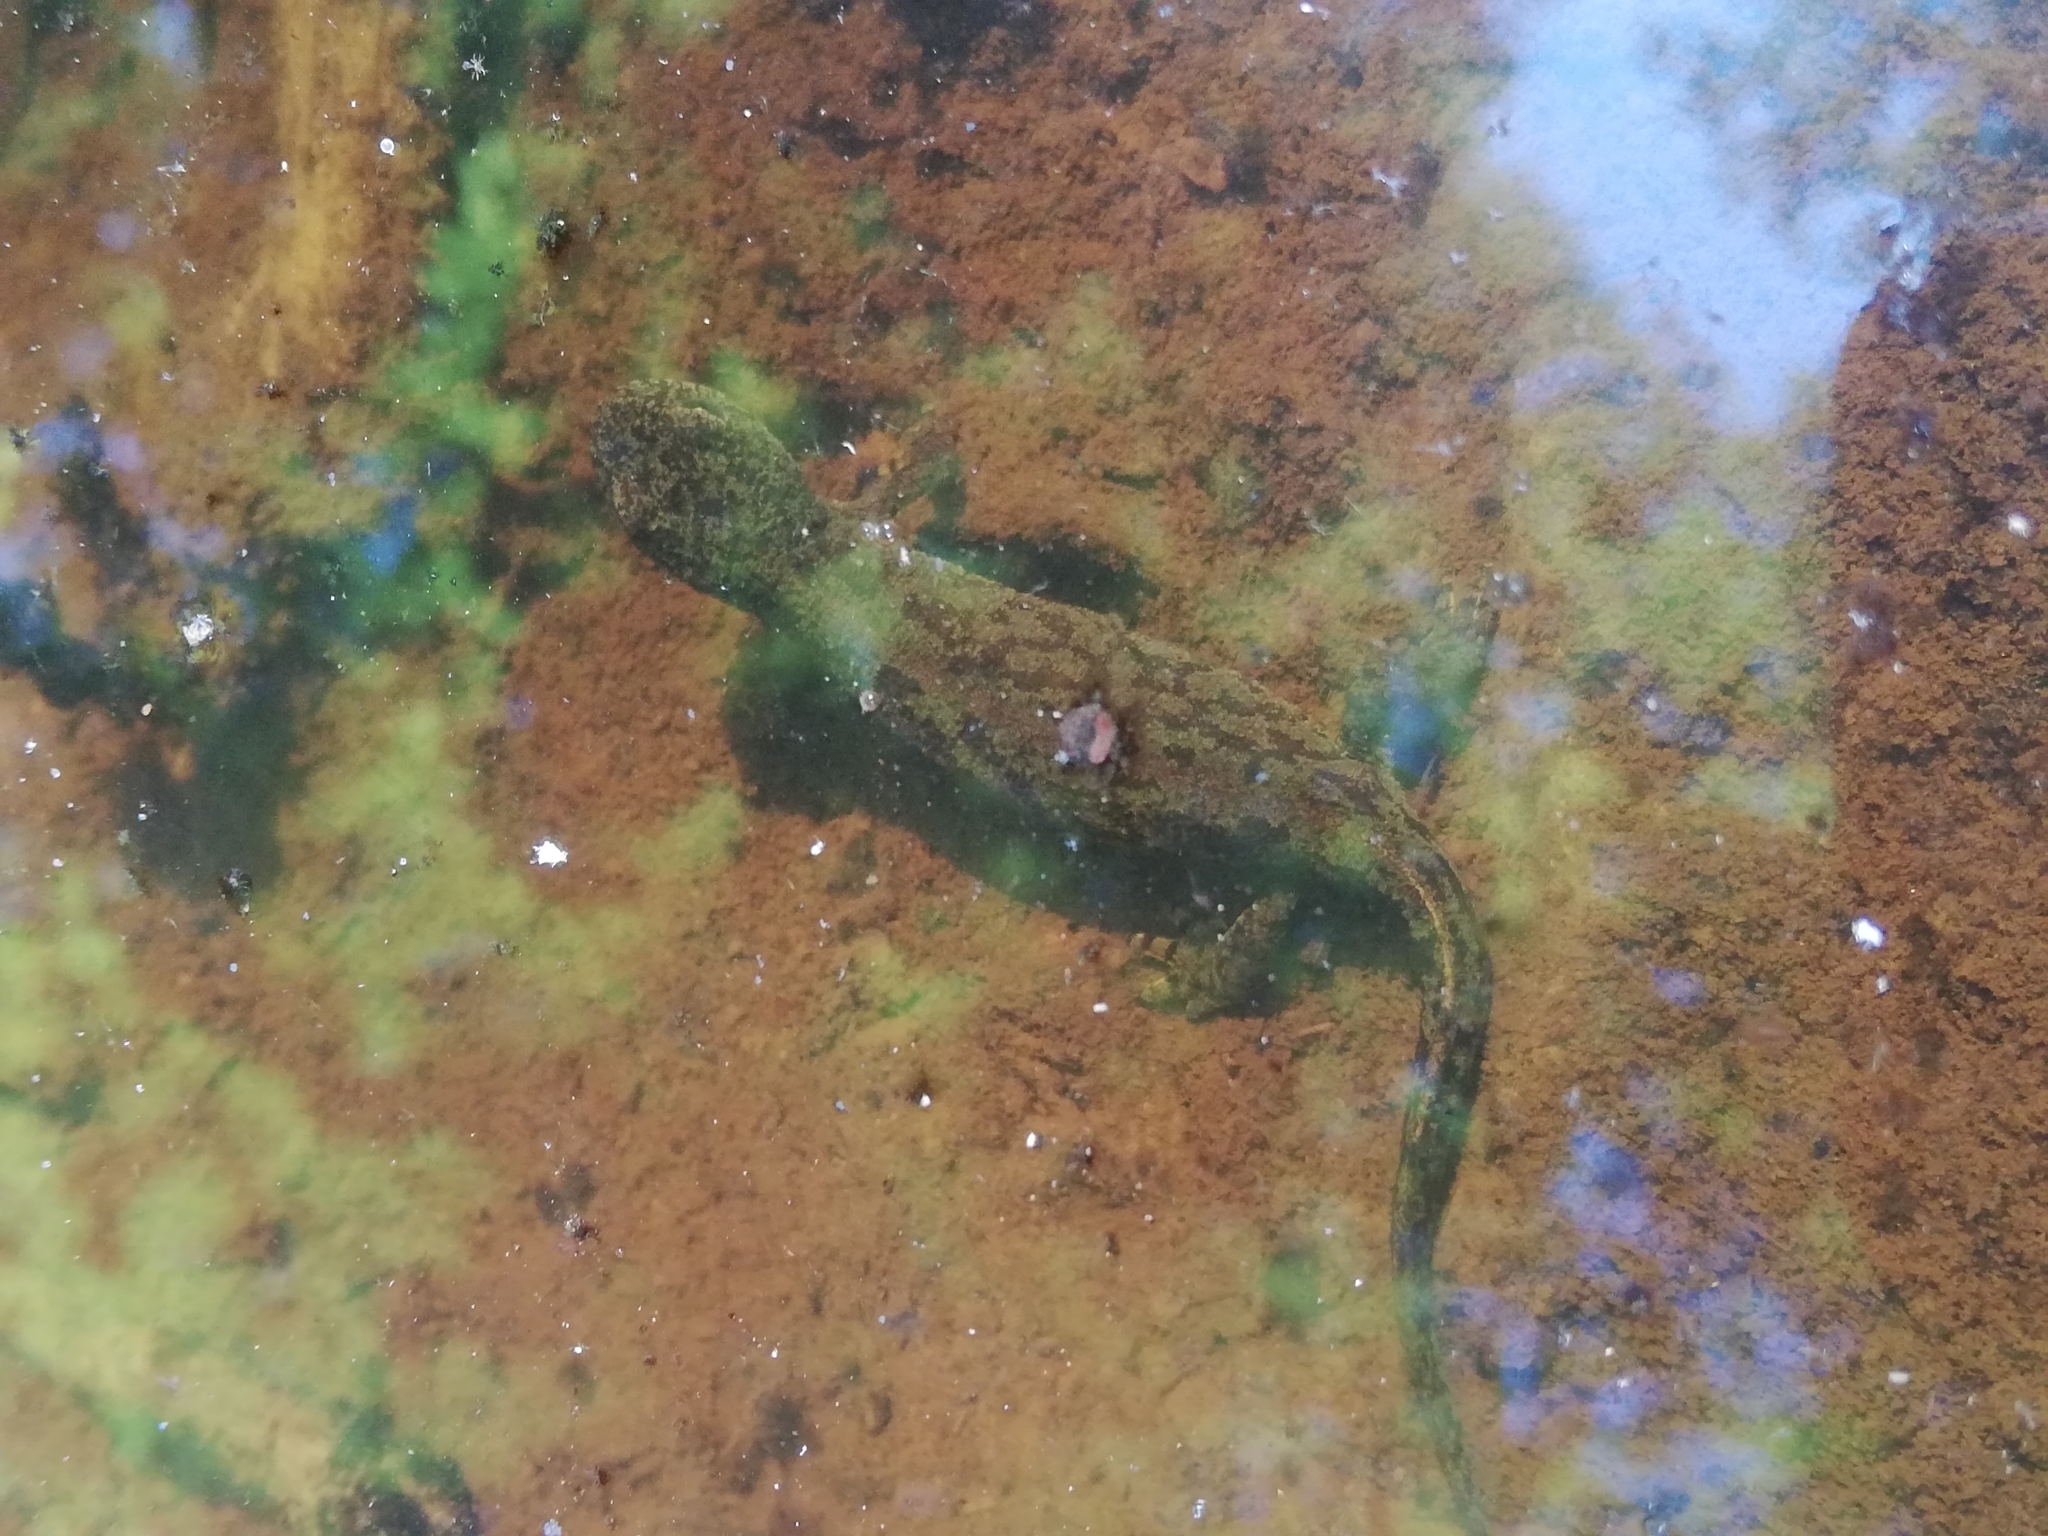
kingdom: Animalia
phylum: Chordata
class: Amphibia
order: Caudata
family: Salamandridae
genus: Ichthyosaura
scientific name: Ichthyosaura alpestris
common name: Alpine newt
